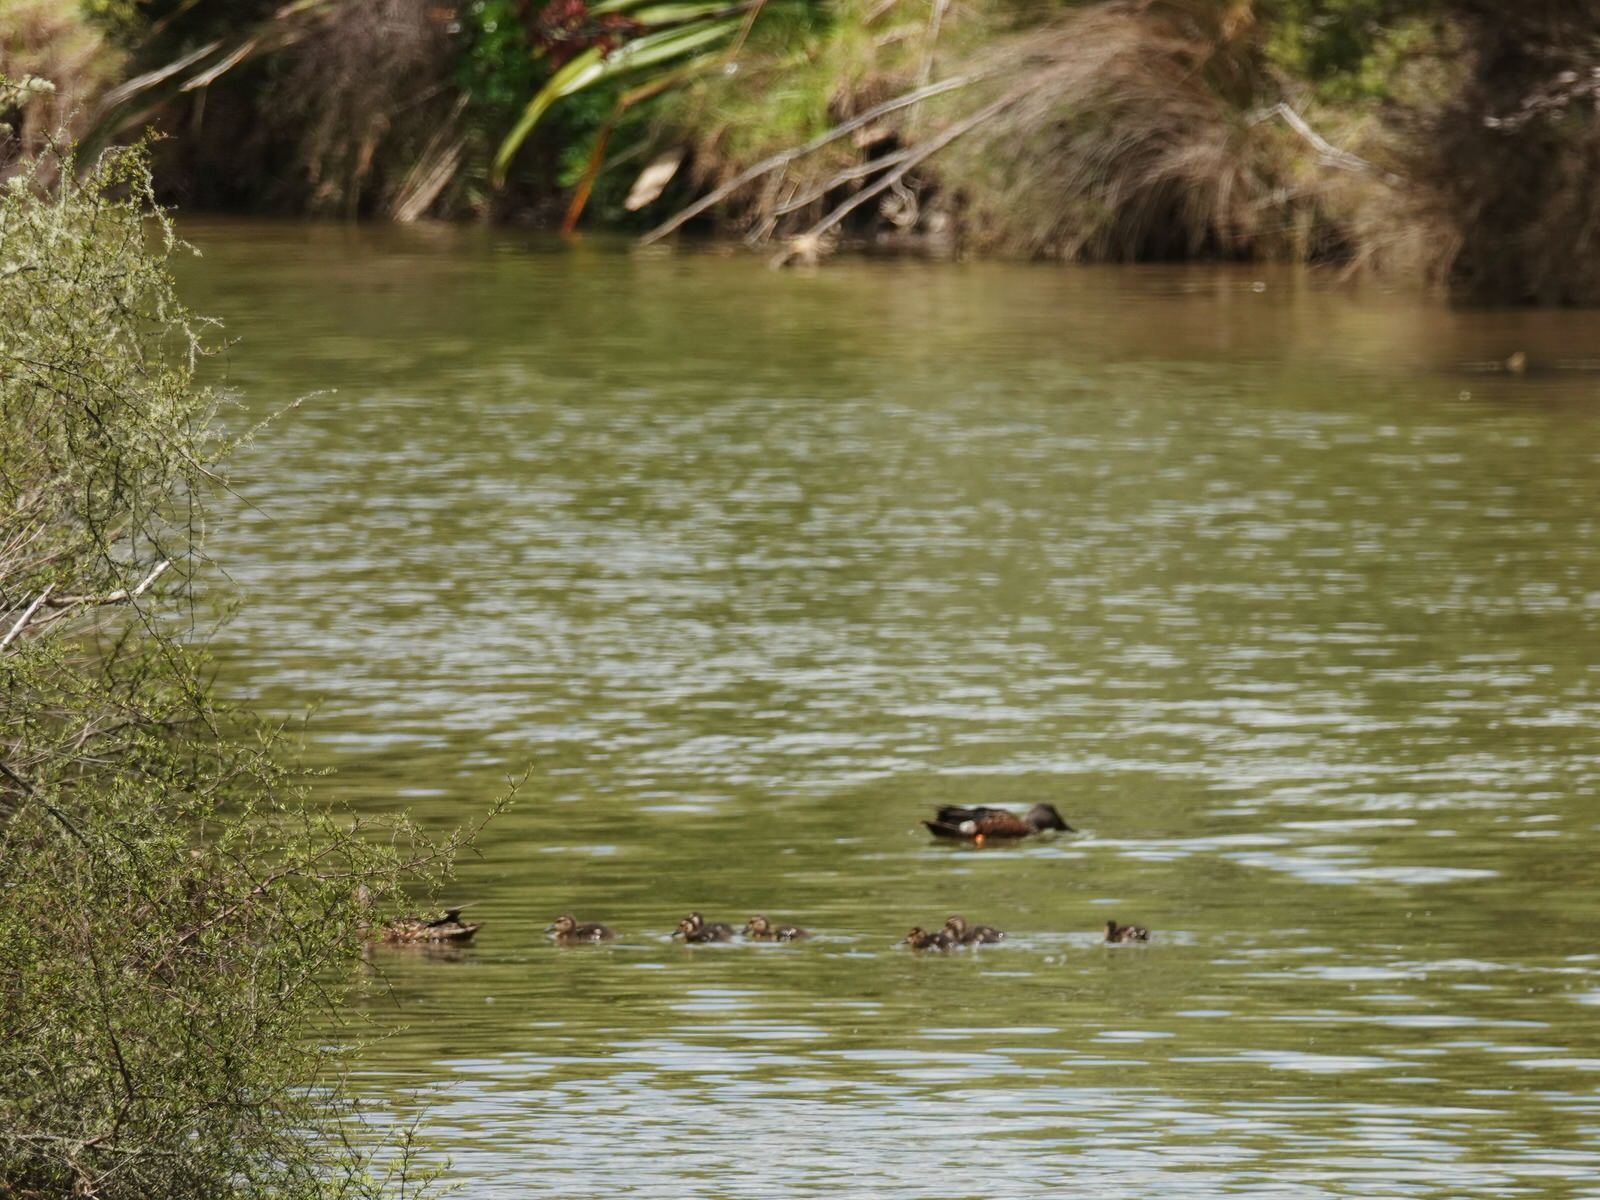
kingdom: Animalia
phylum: Chordata
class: Aves
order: Anseriformes
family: Anatidae
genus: Spatula
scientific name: Spatula rhynchotis
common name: Australian shoveler
